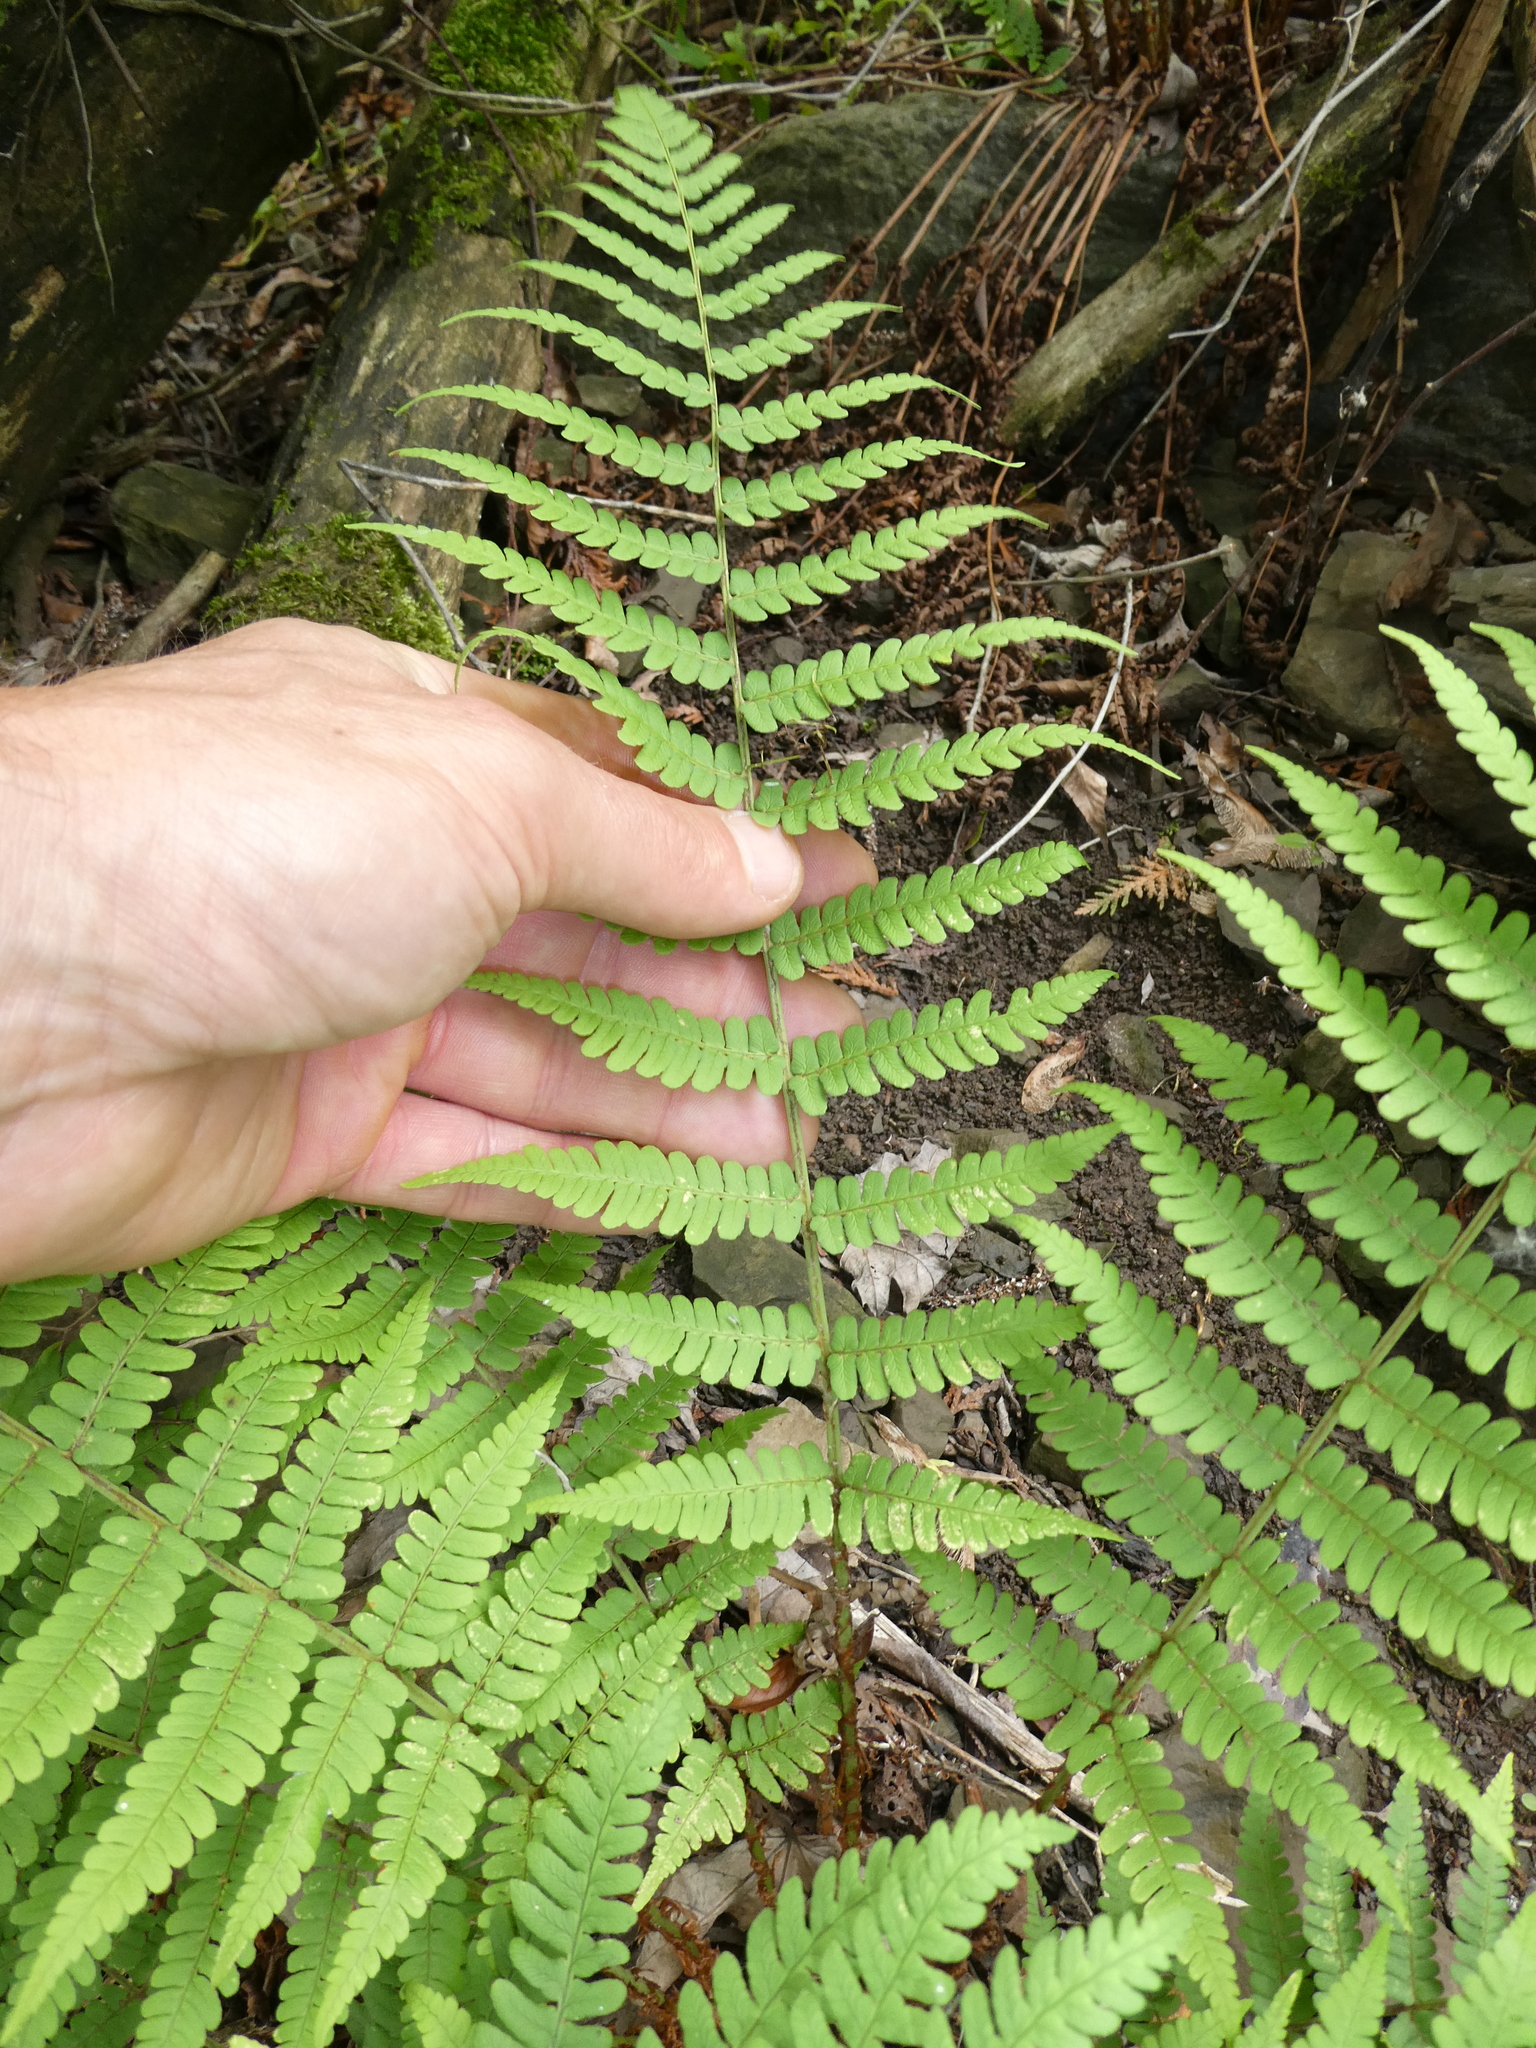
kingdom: Plantae
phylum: Tracheophyta
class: Polypodiopsida
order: Polypodiales
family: Dryopteridaceae
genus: Dryopteris
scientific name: Dryopteris marginalis
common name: Marginal wood fern
